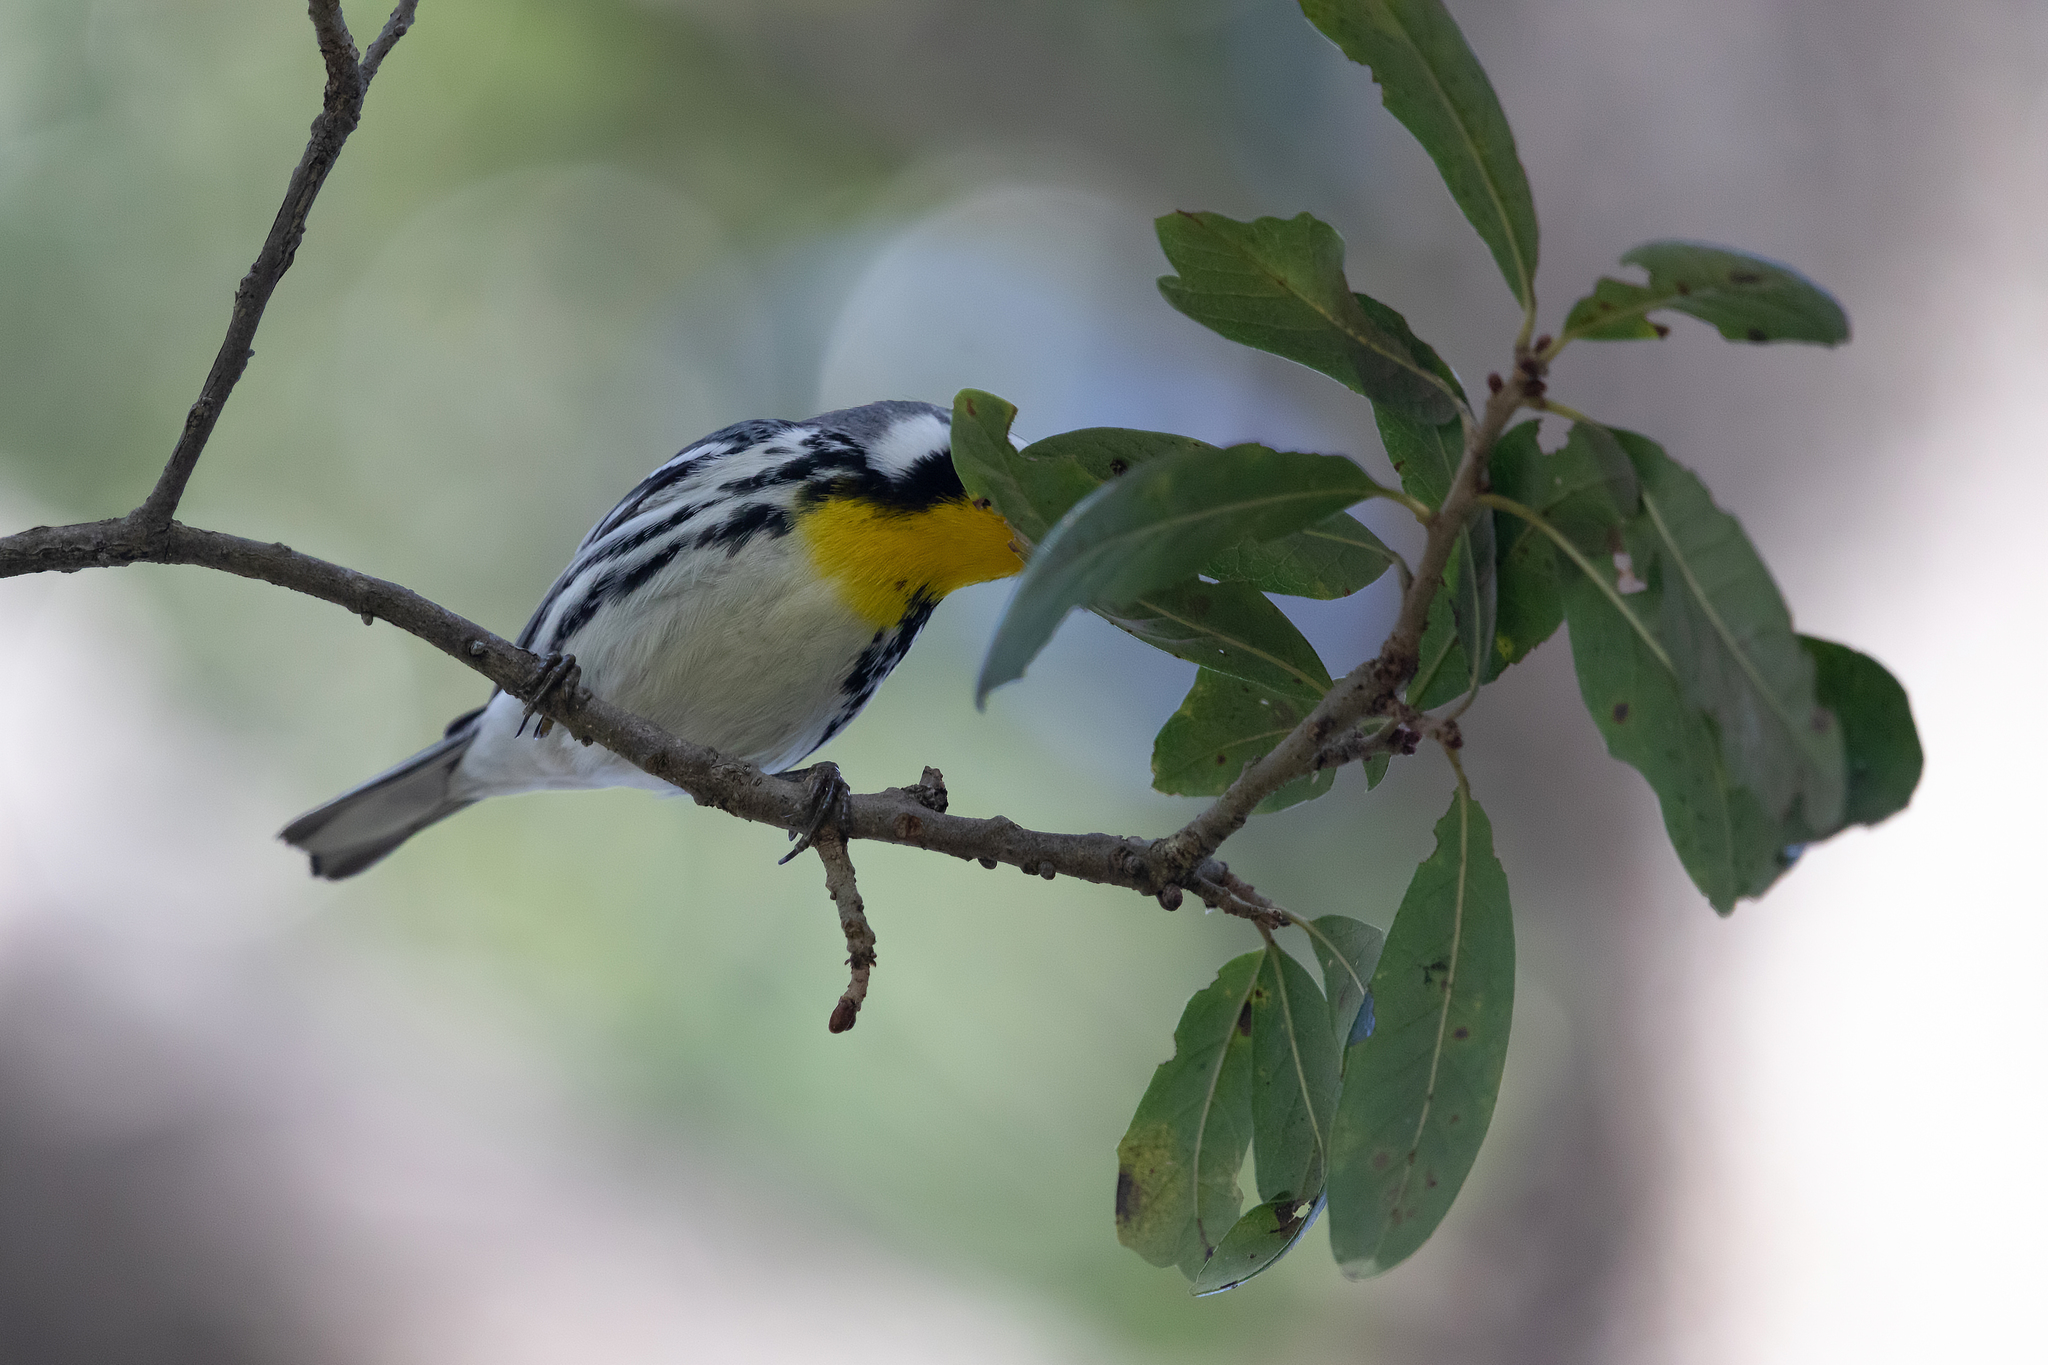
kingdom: Animalia
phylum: Chordata
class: Aves
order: Passeriformes
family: Parulidae
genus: Setophaga
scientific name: Setophaga dominica
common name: Yellow-throated warbler
